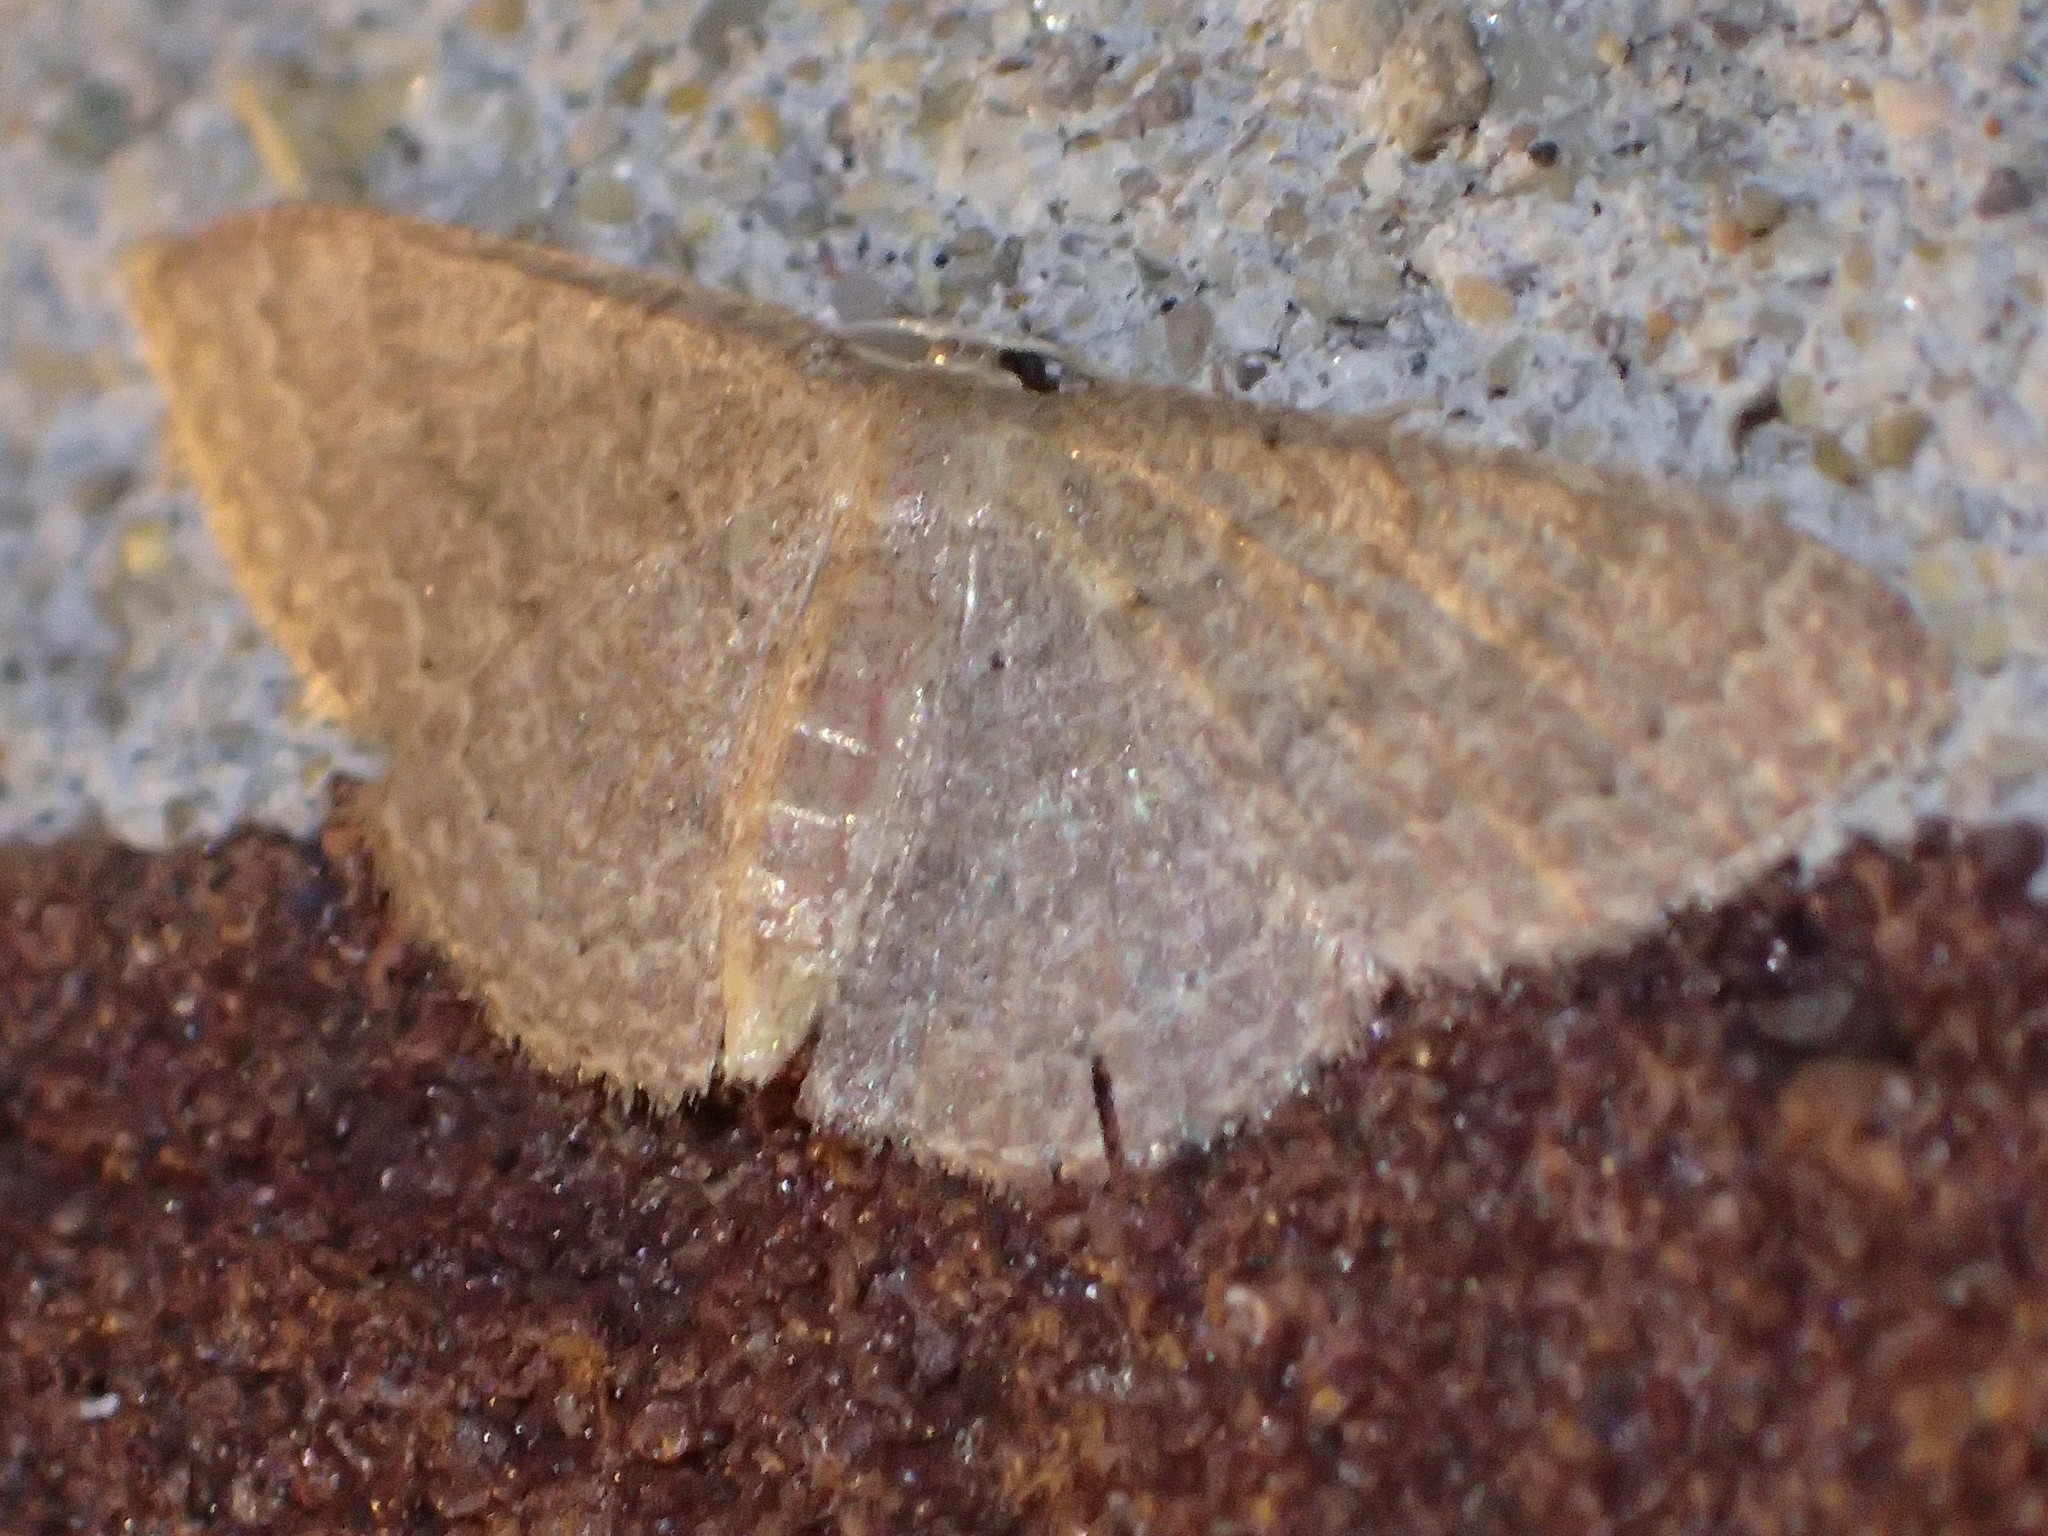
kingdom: Animalia
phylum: Arthropoda
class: Insecta
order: Lepidoptera
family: Geometridae
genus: Pleuroprucha
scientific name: Pleuroprucha insulsaria
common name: Common tan wave
